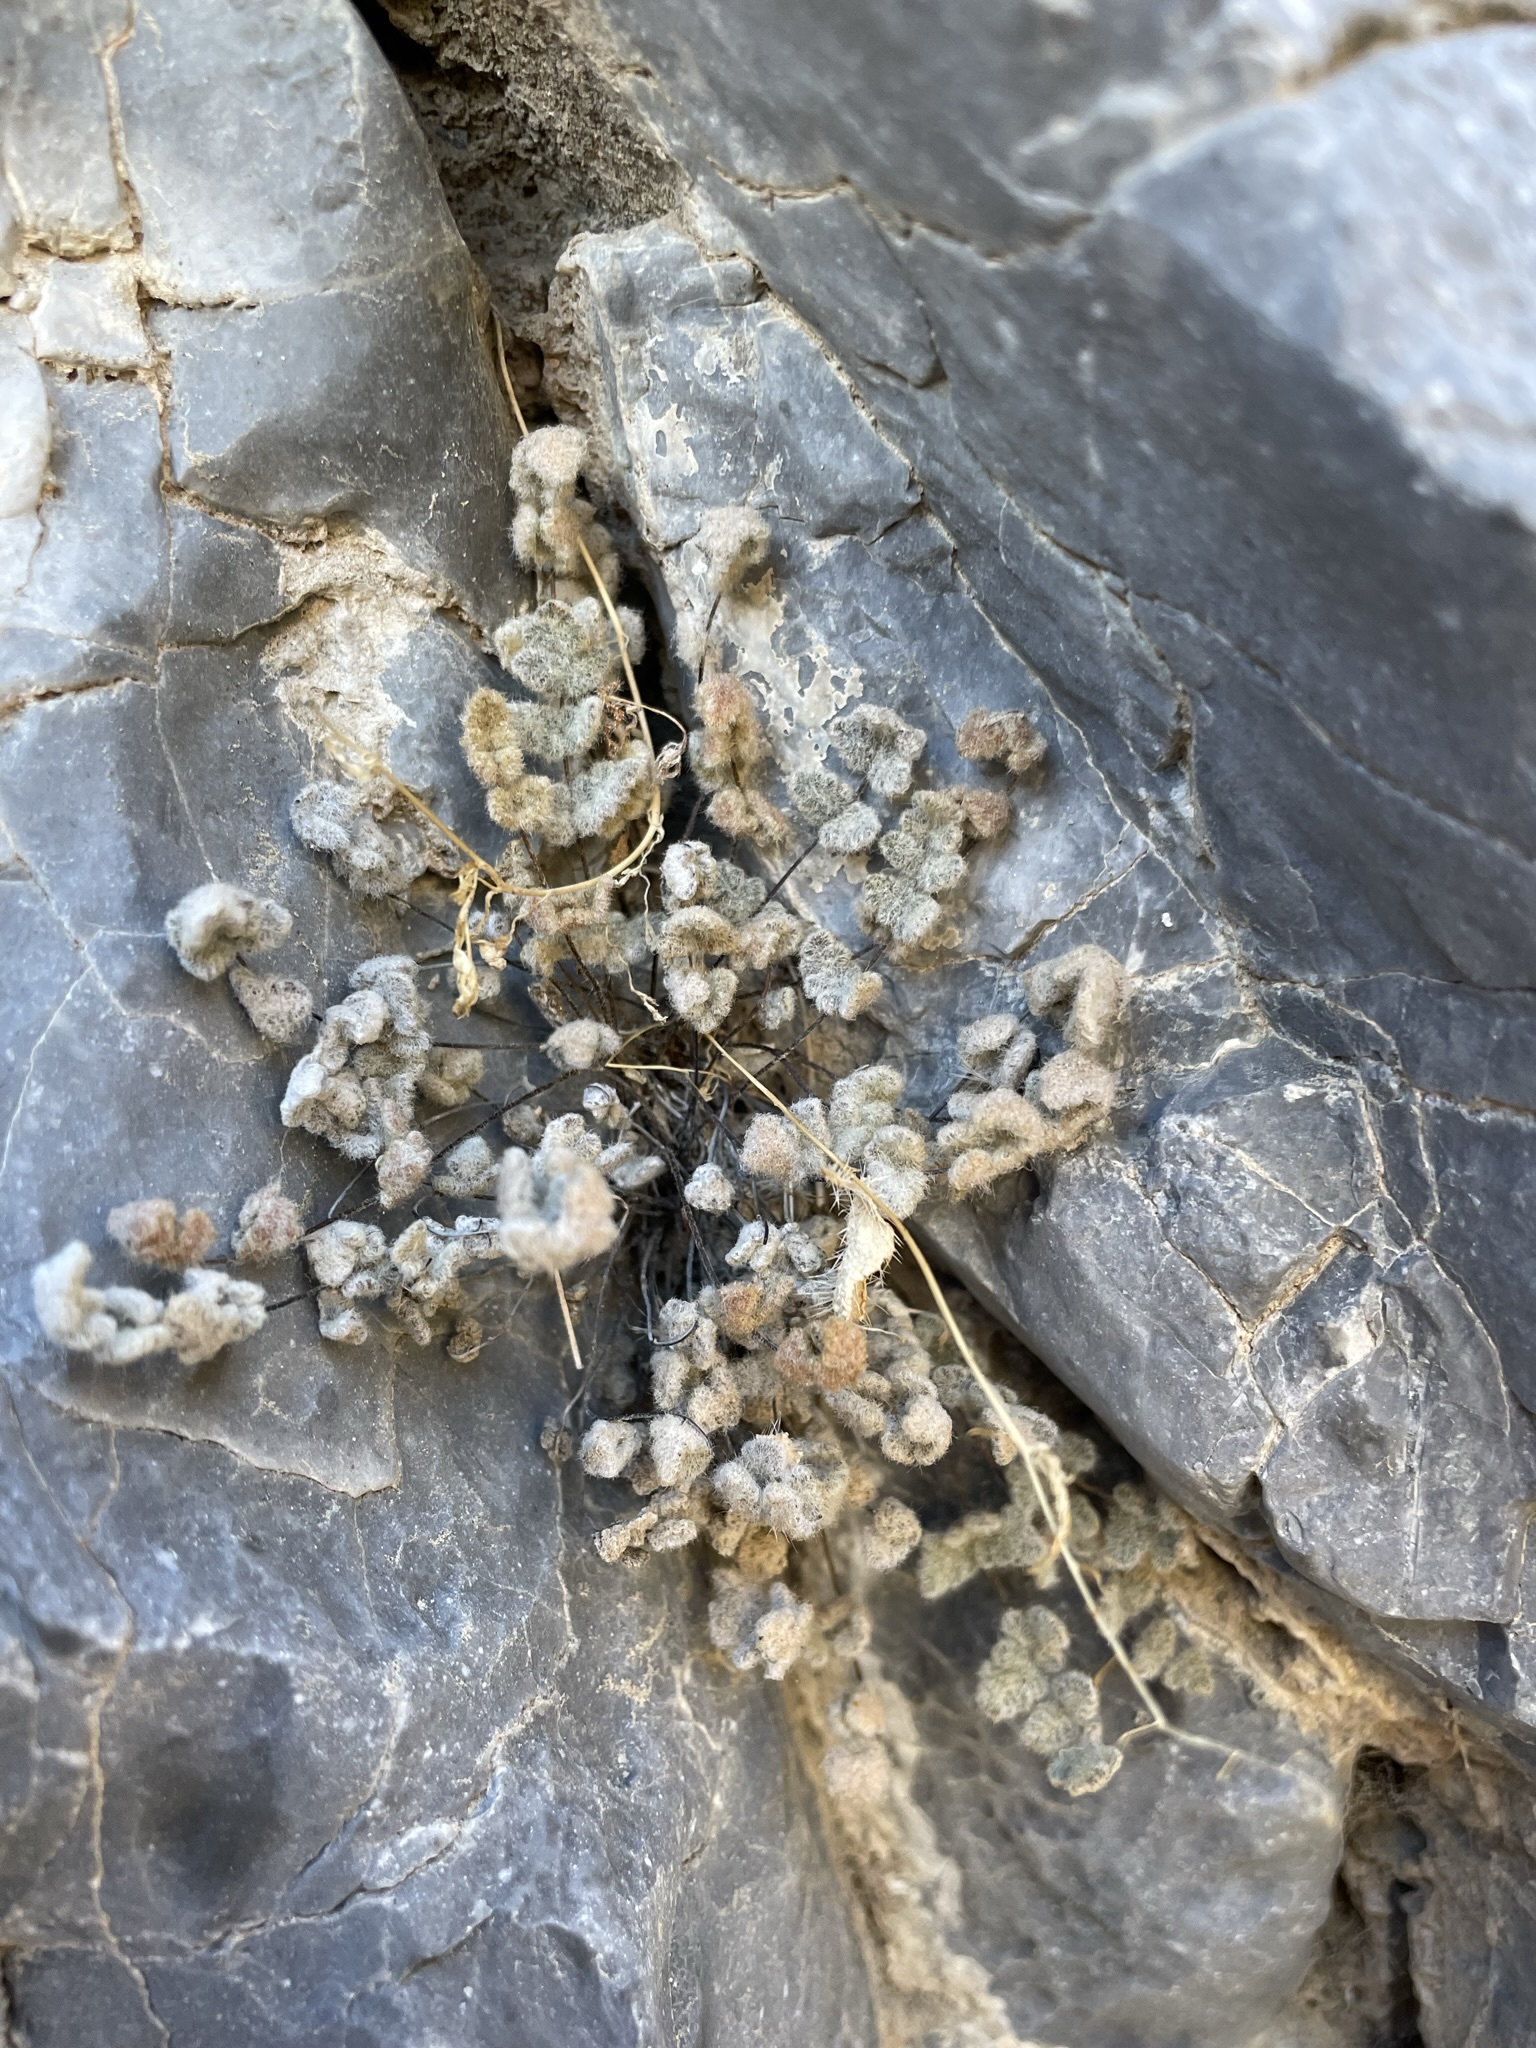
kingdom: Plantae
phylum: Tracheophyta
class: Polypodiopsida
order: Polypodiales
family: Pteridaceae
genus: Myriopteris
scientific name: Myriopteris parryi
